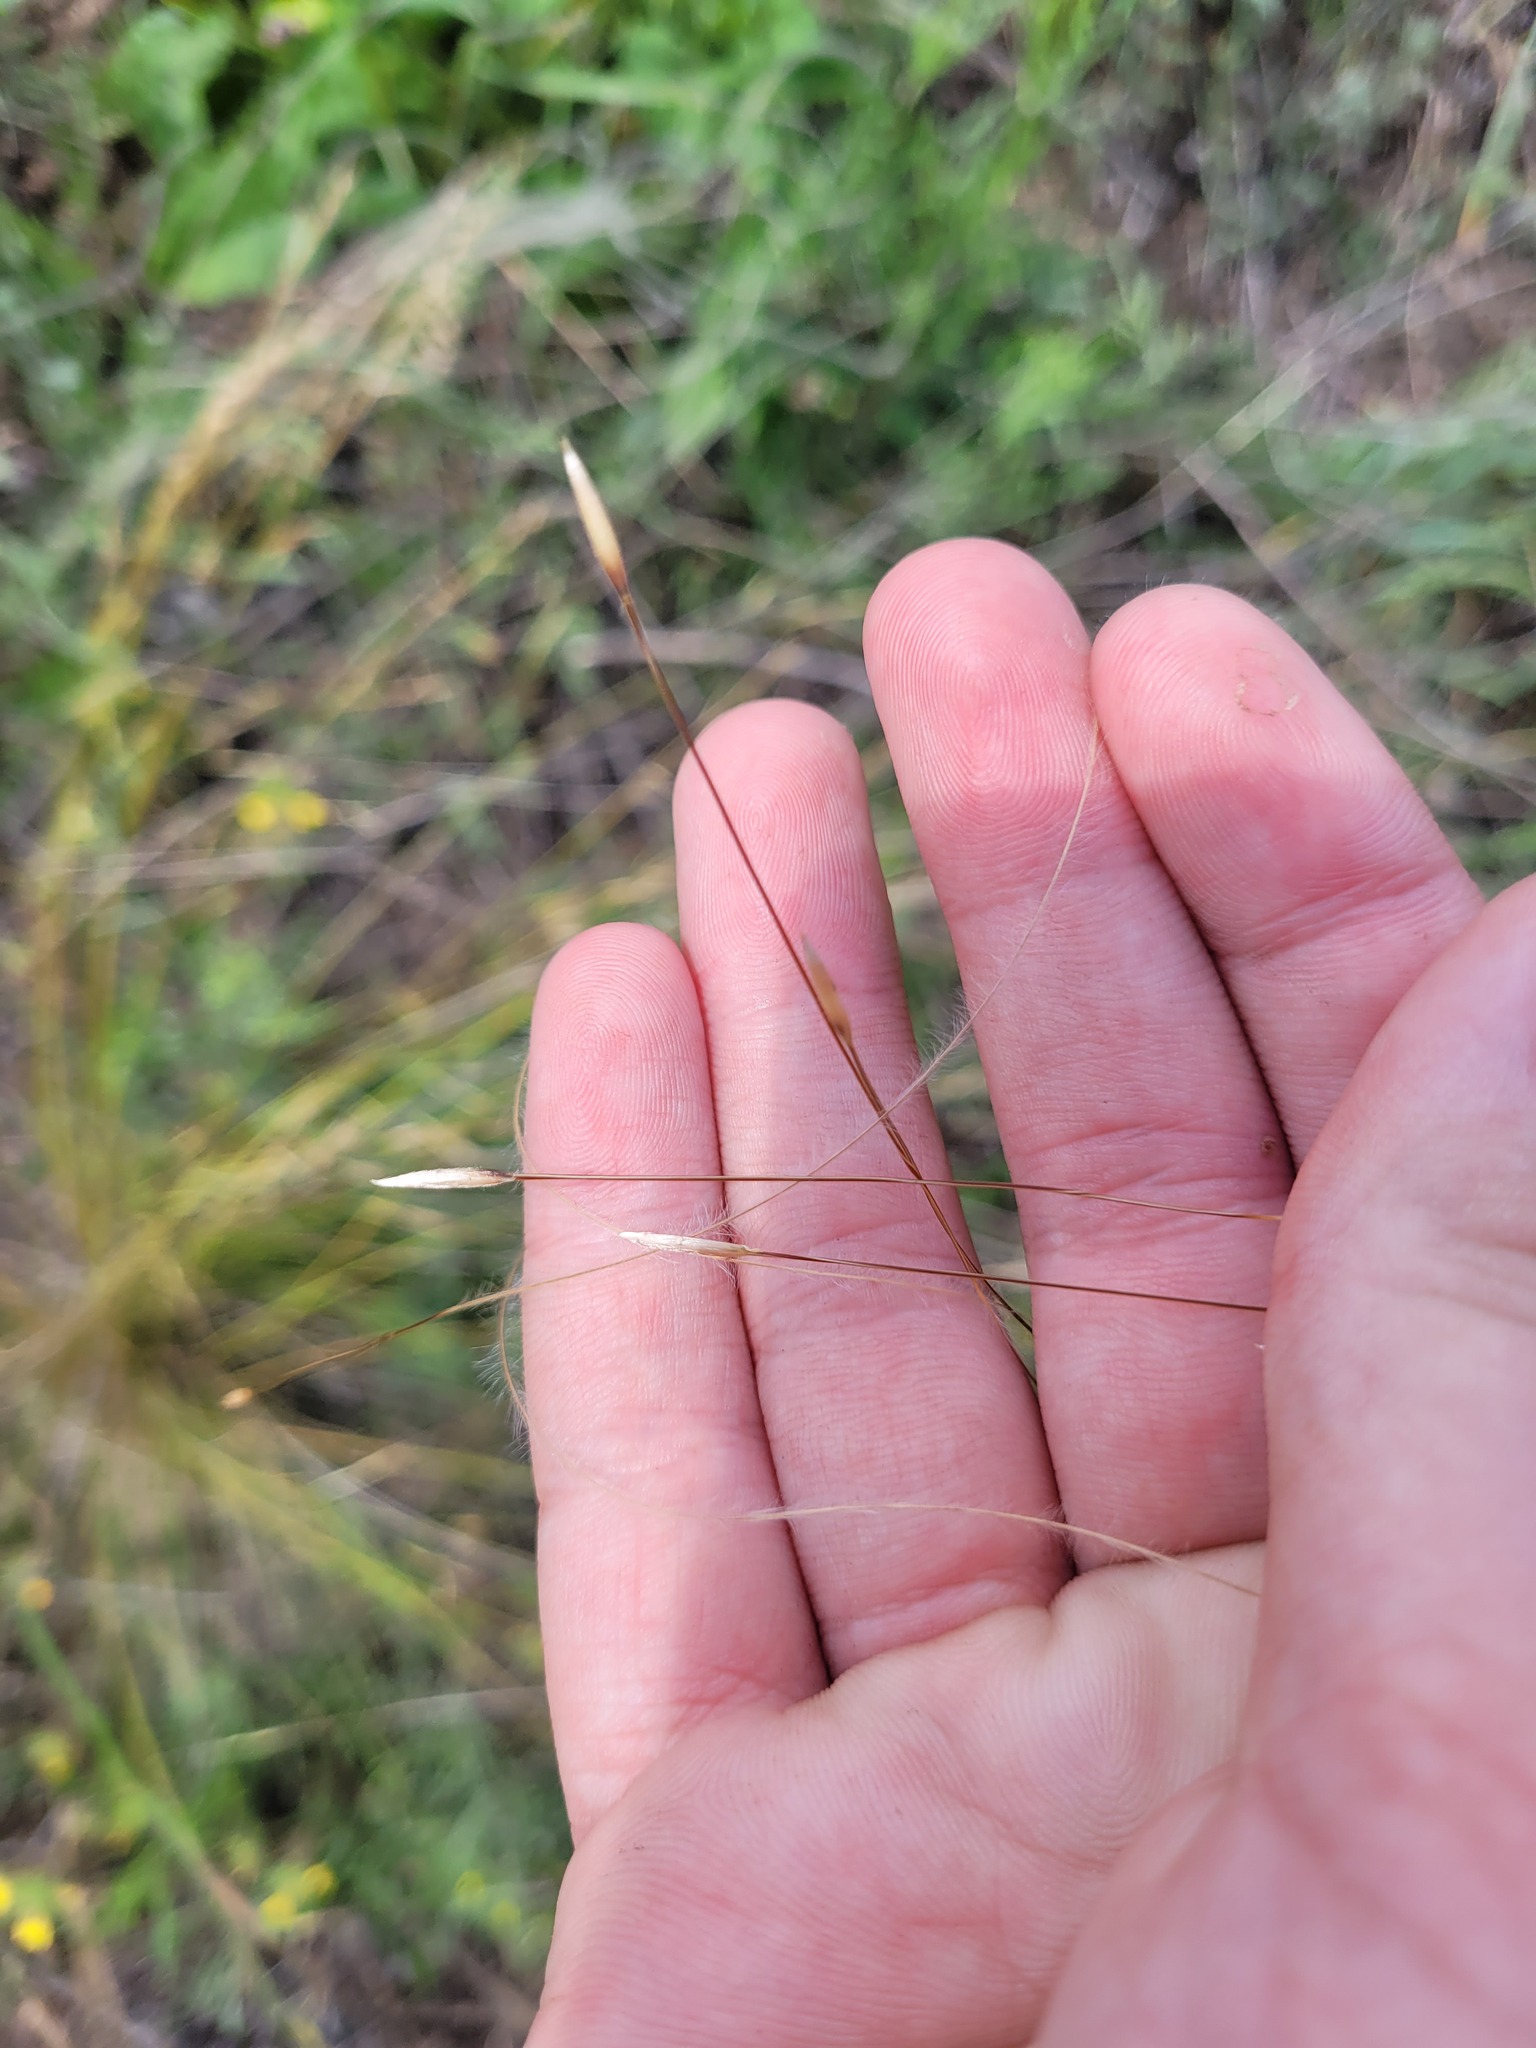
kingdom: Plantae
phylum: Tracheophyta
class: Liliopsida
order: Poales
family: Poaceae
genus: Stipa
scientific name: Stipa lessingiana
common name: Needle grass
